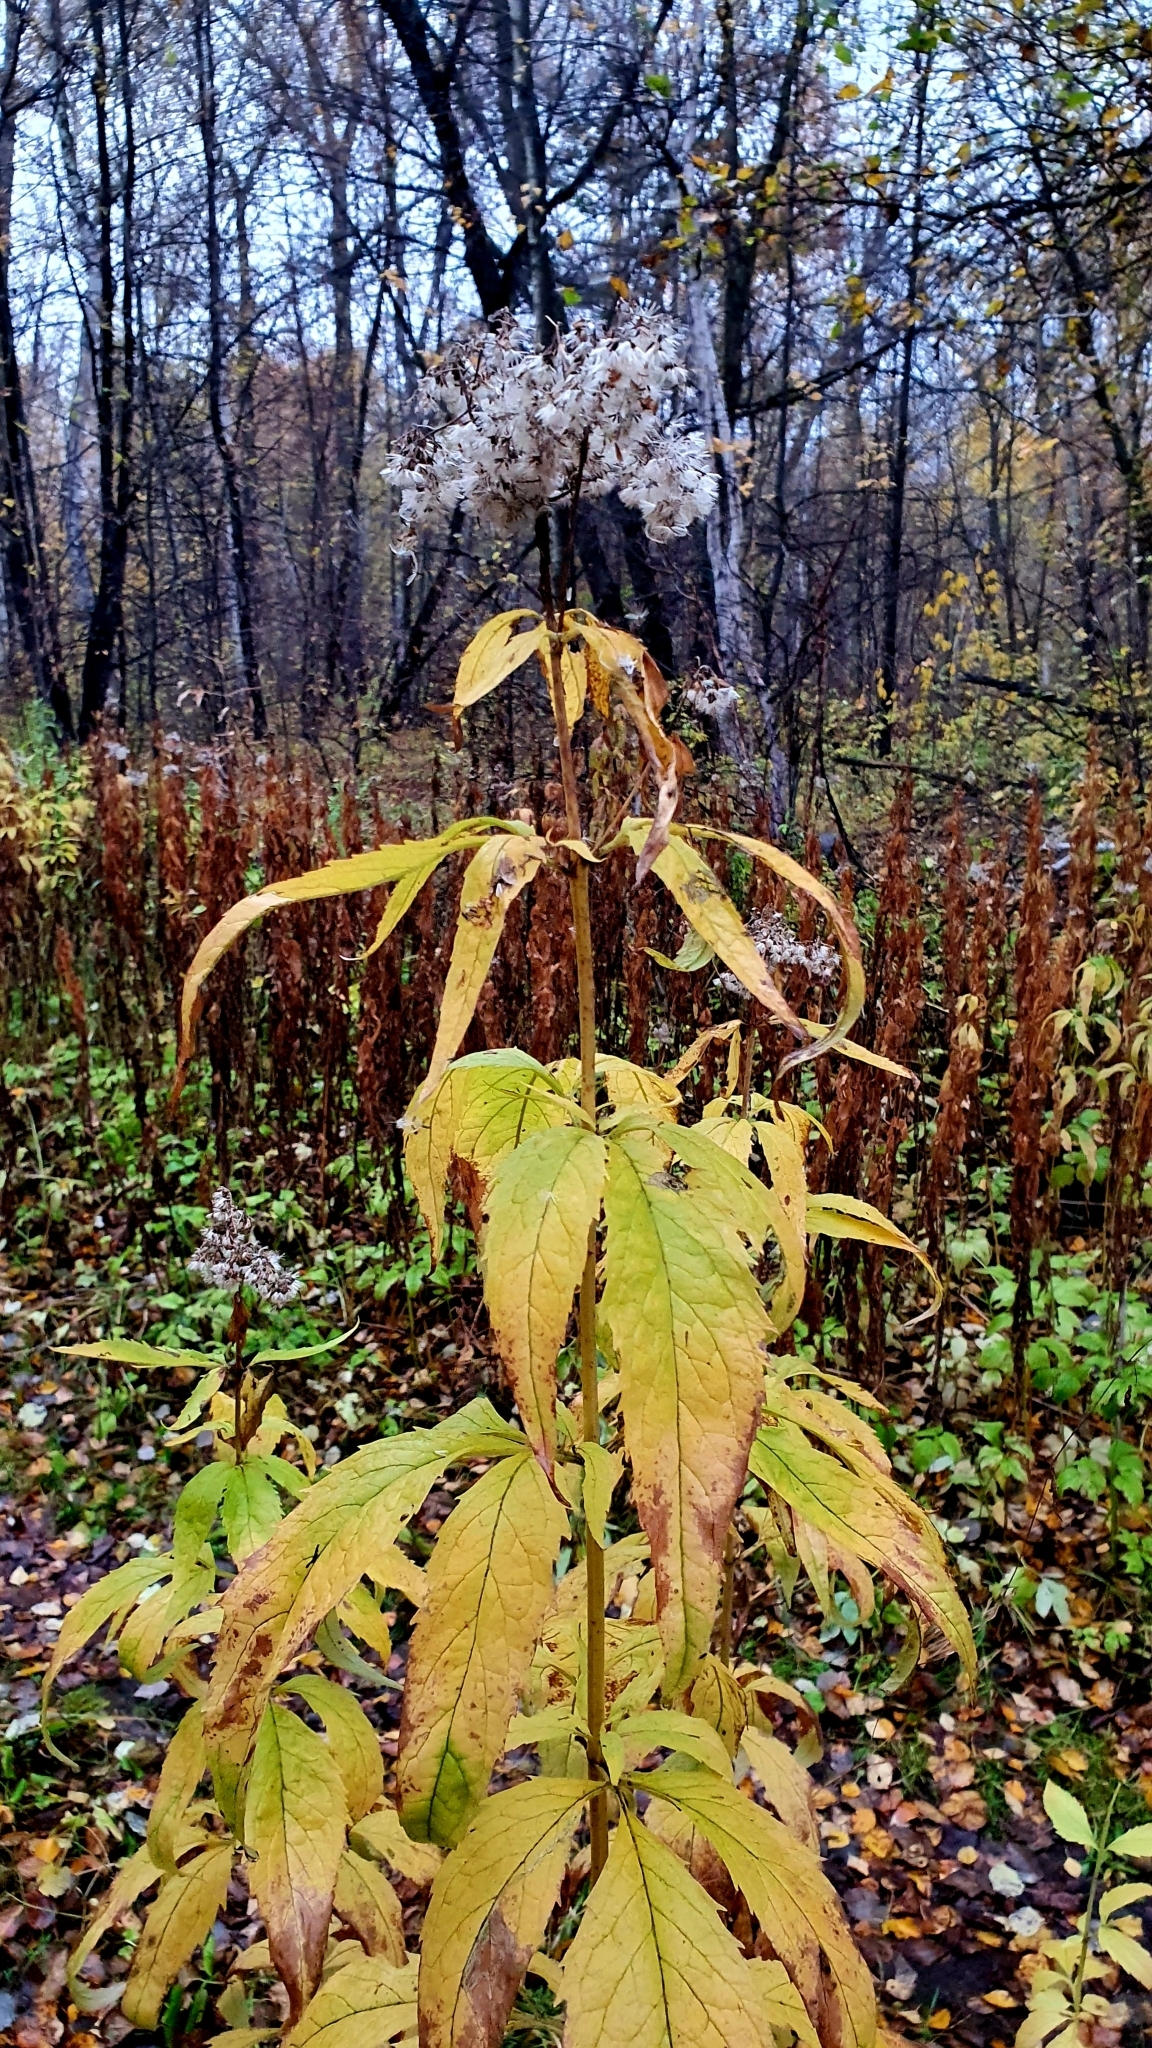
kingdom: Plantae
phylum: Tracheophyta
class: Magnoliopsida
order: Asterales
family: Asteraceae
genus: Eupatorium
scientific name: Eupatorium cannabinum
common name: Hemp-agrimony
